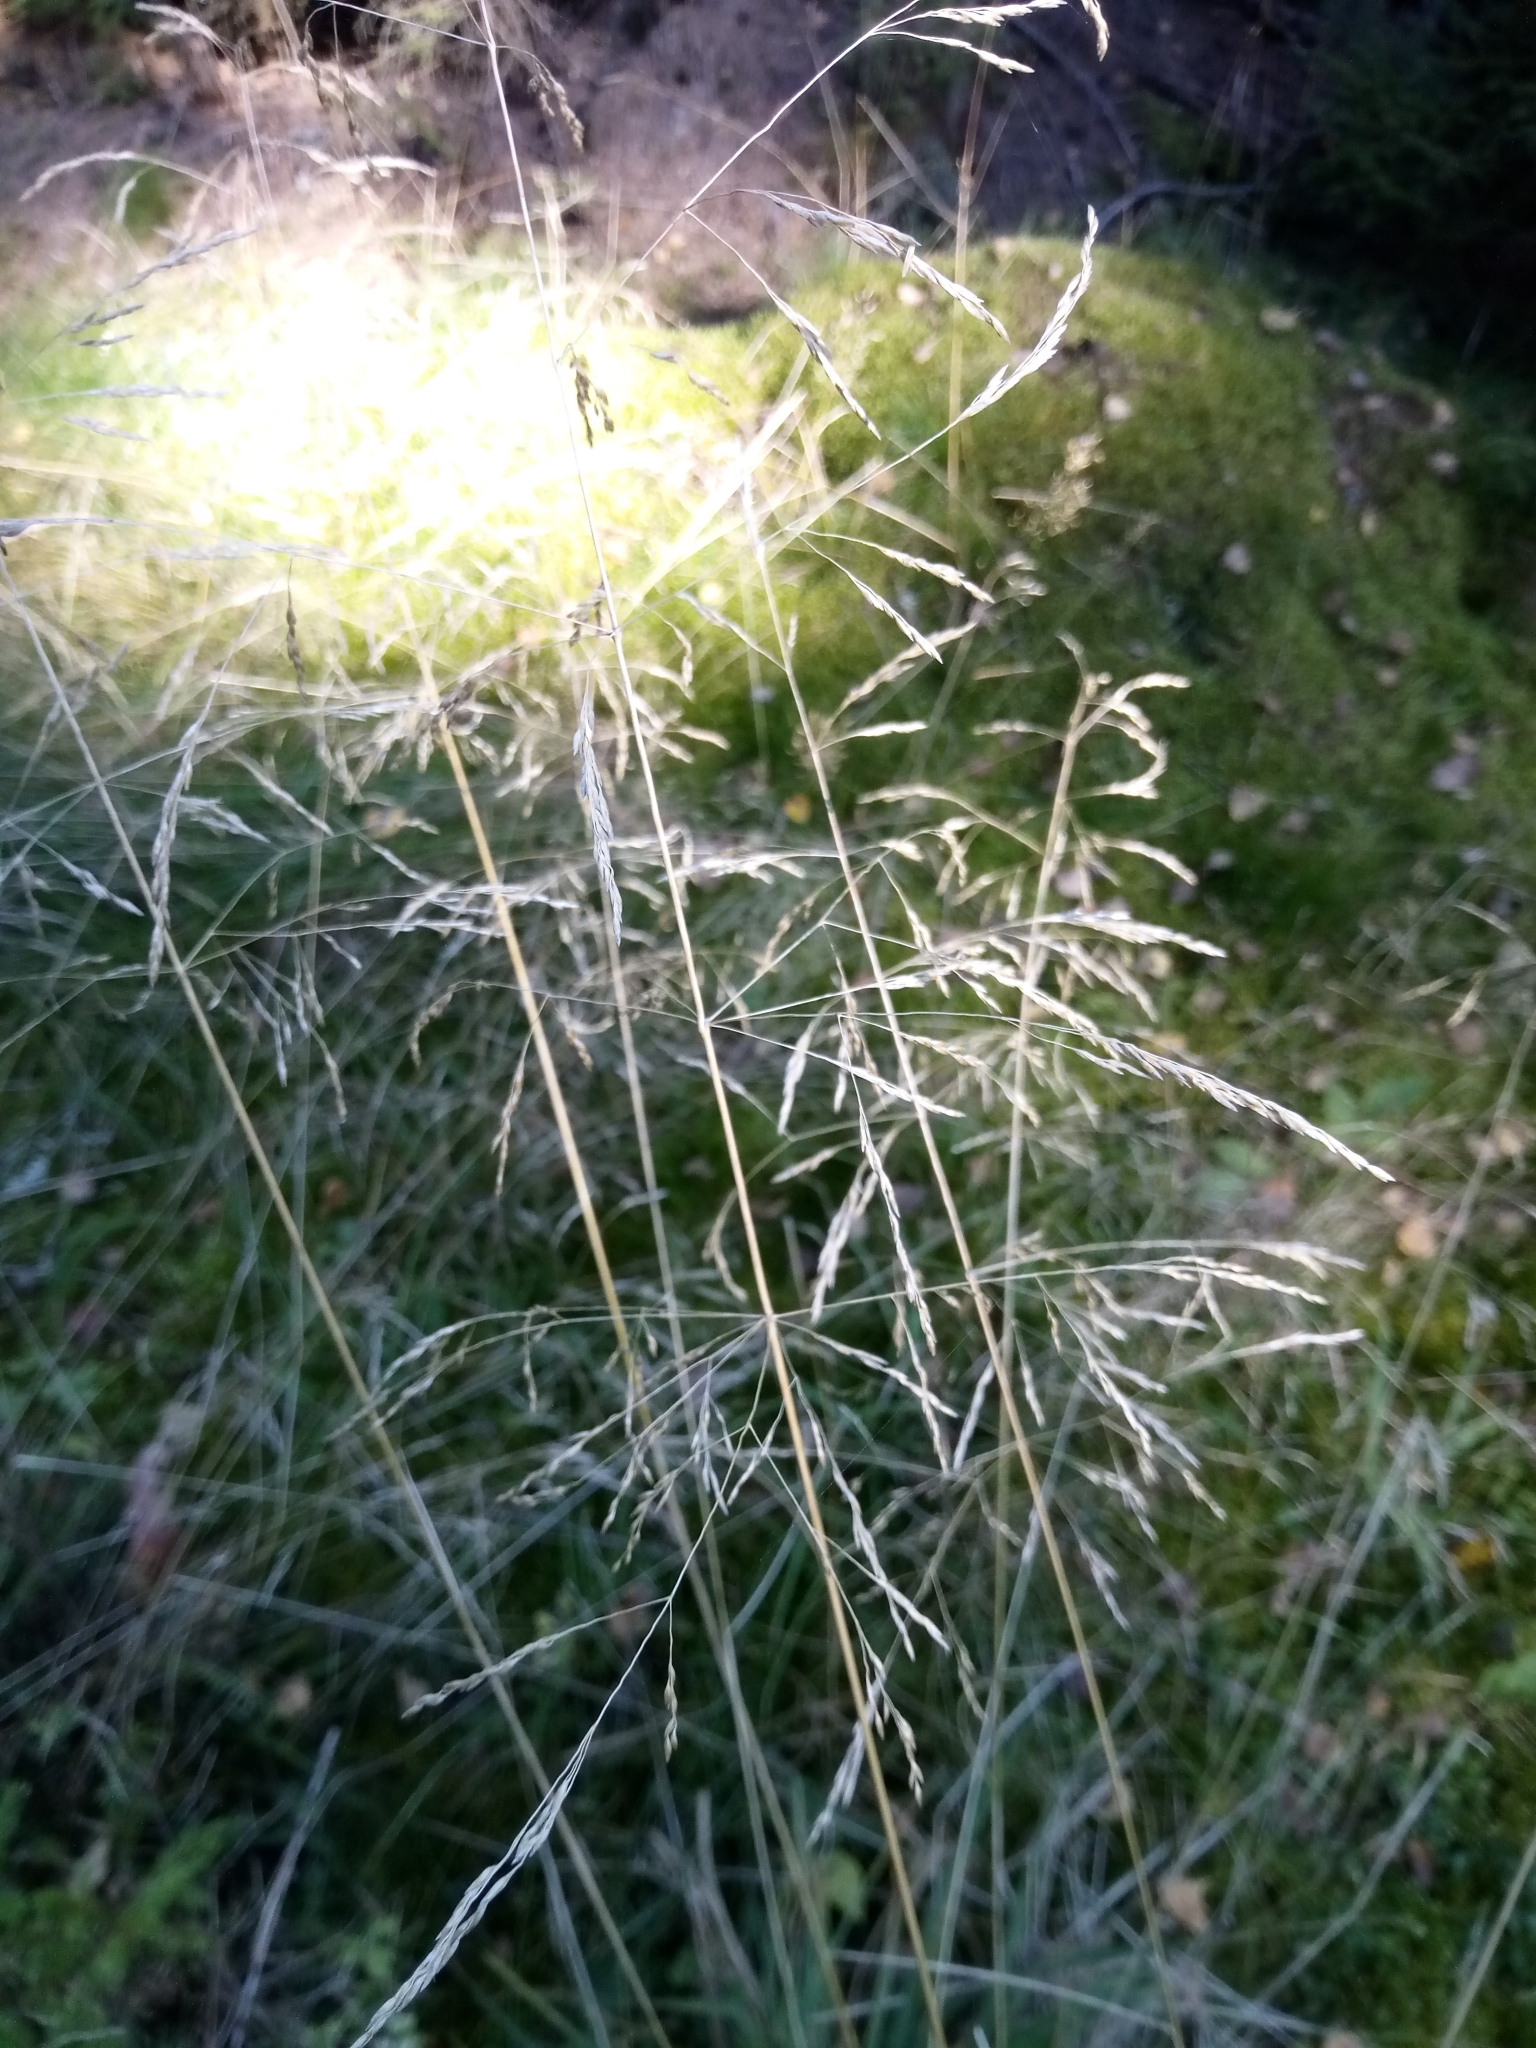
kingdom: Plantae
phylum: Tracheophyta
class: Liliopsida
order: Poales
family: Poaceae
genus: Deschampsia
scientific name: Deschampsia cespitosa
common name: Tufted hair-grass
